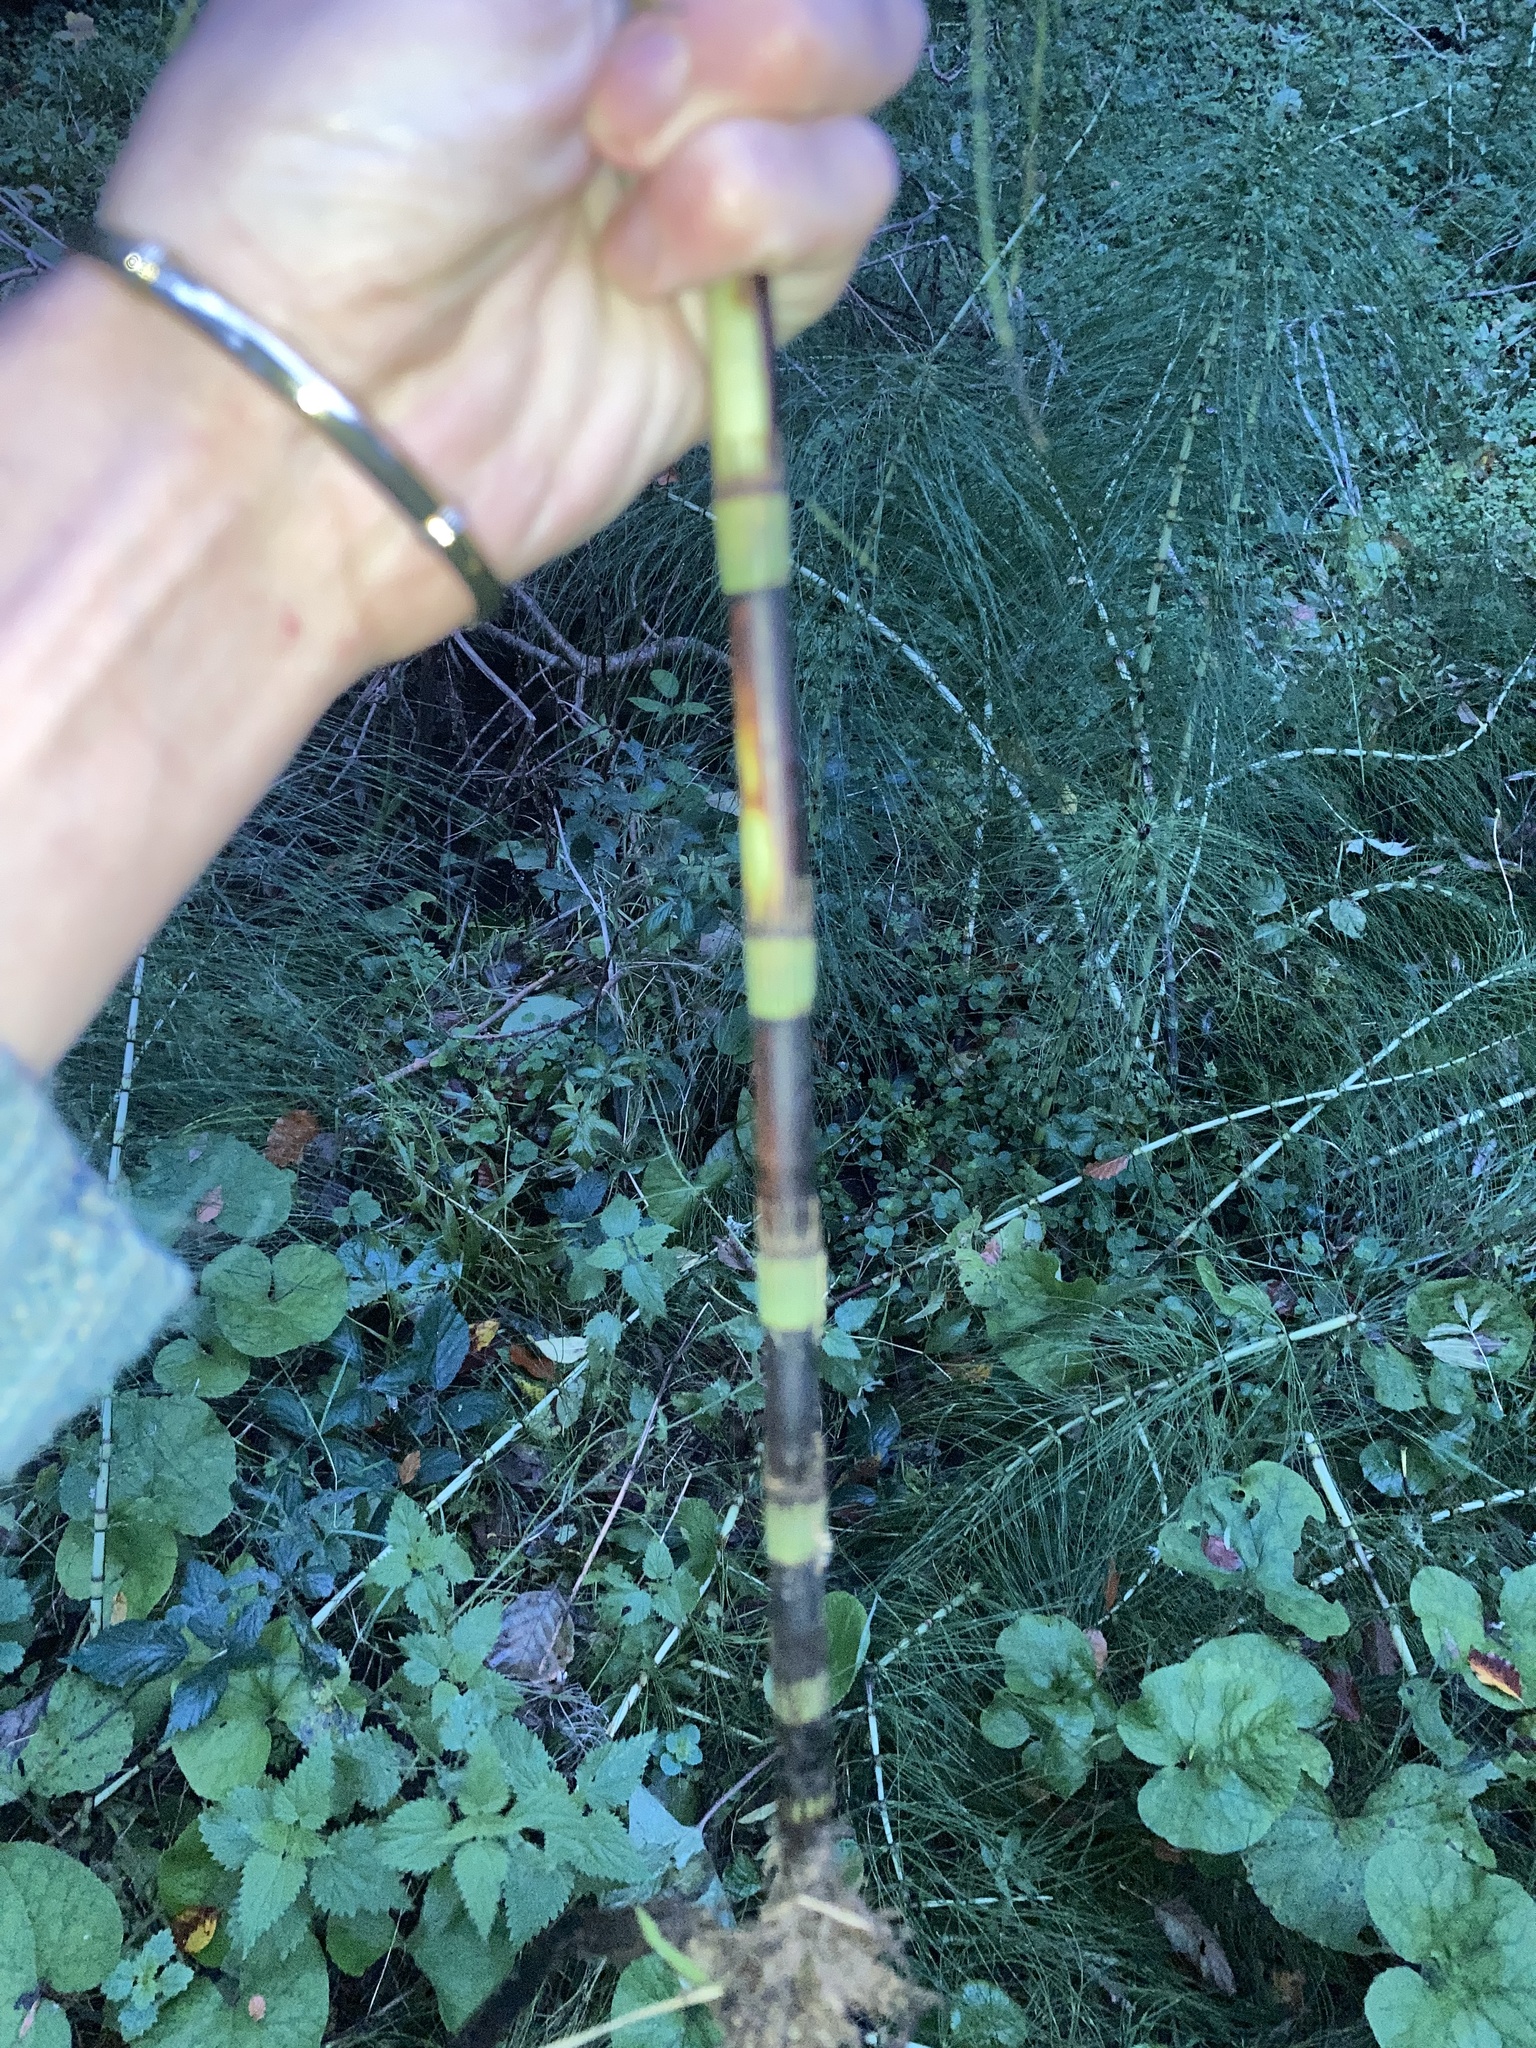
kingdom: Plantae
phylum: Tracheophyta
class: Polypodiopsida
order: Equisetales
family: Equisetaceae
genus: Equisetum
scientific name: Equisetum telmateia
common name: Great horsetail
